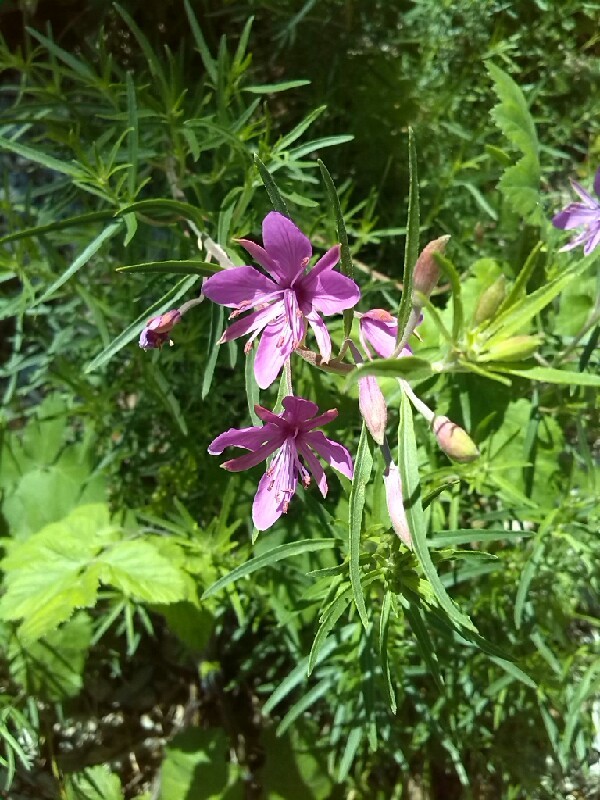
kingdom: Plantae
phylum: Tracheophyta
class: Magnoliopsida
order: Myrtales
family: Onagraceae
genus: Chamaenerion
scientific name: Chamaenerion dodonaei
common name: Rosemary-leaved willowherb
